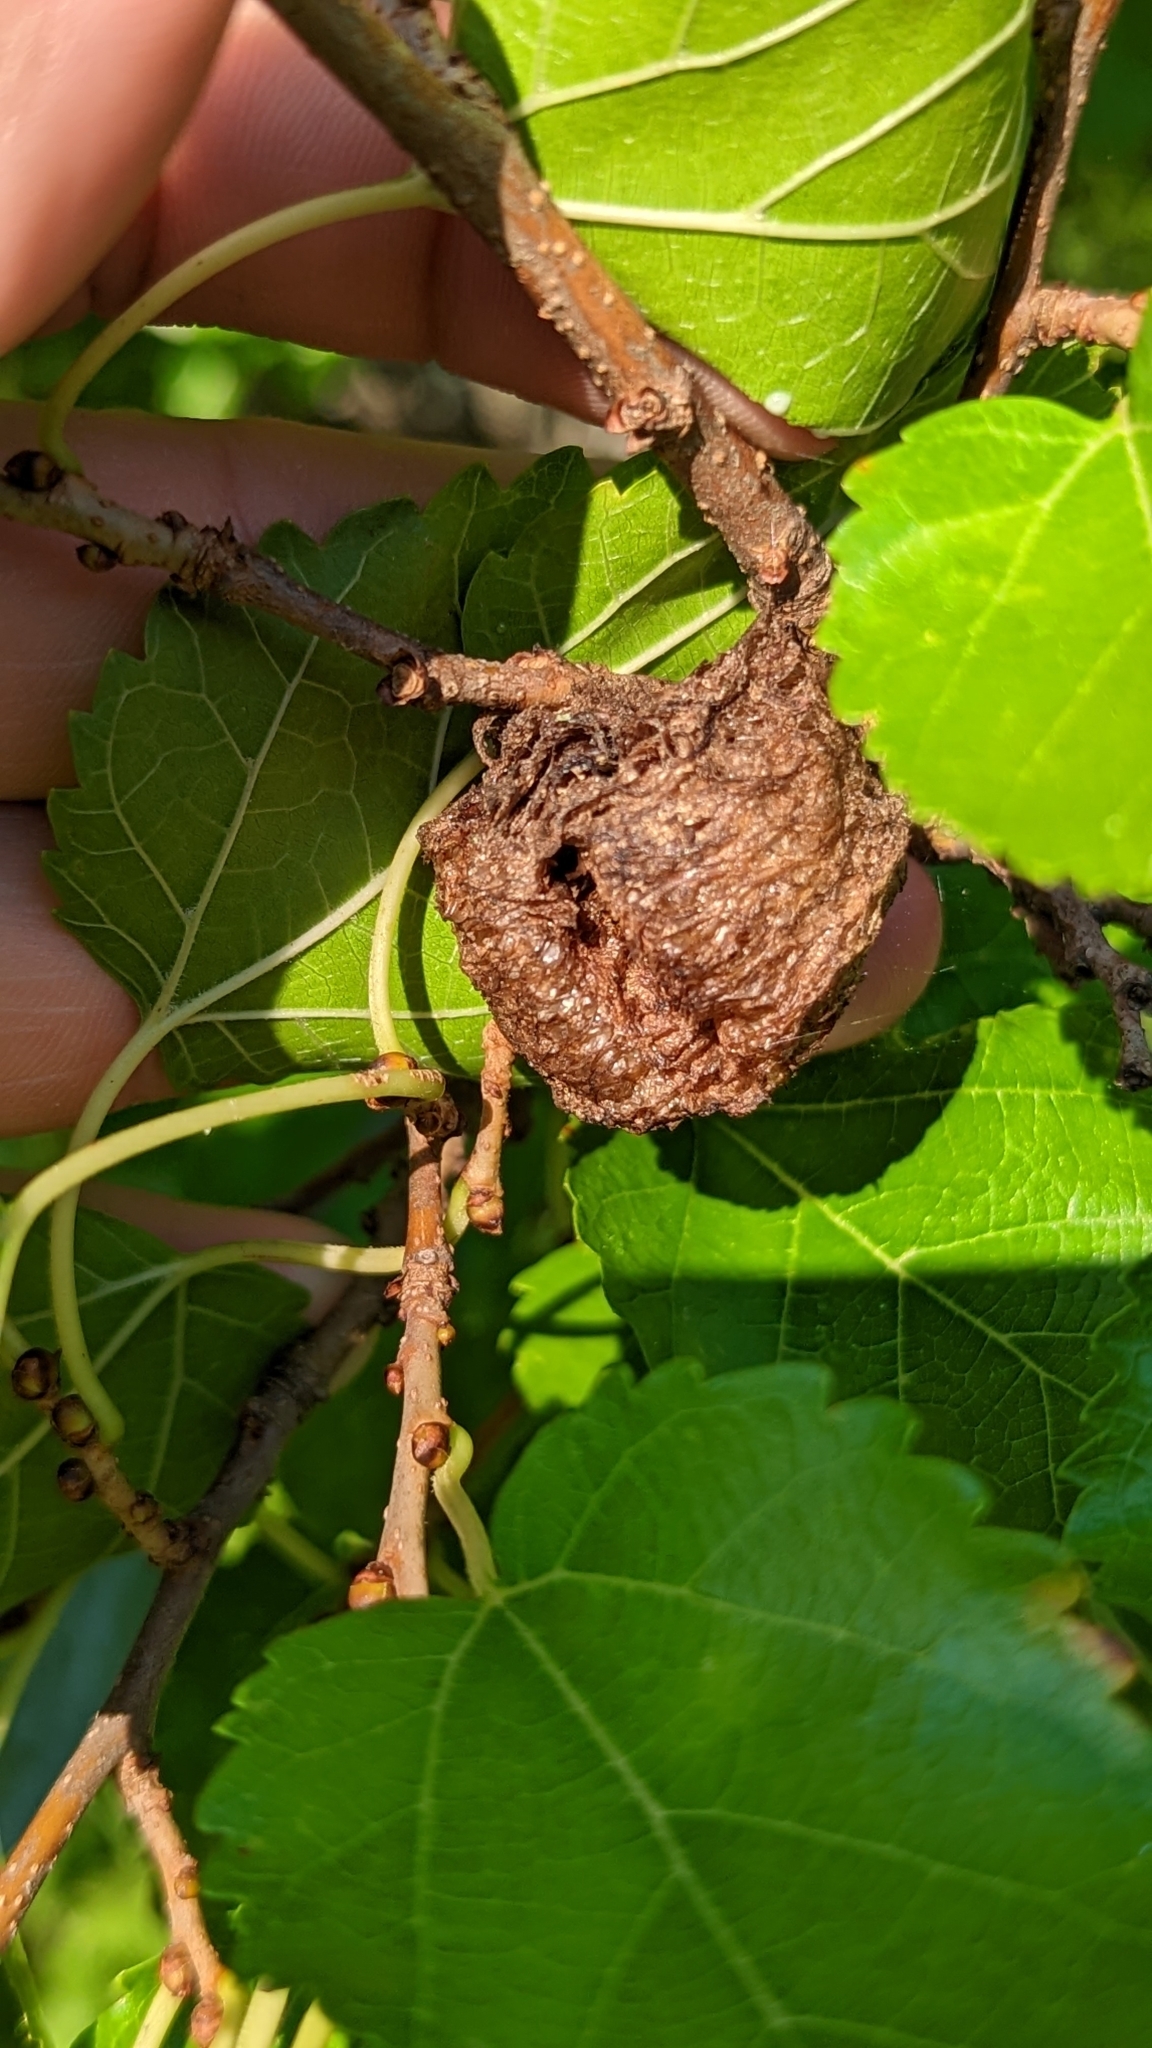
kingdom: Animalia
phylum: Arthropoda
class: Insecta
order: Mantodea
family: Mantidae
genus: Tenodera
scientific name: Tenodera sinensis
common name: Chinese mantis
